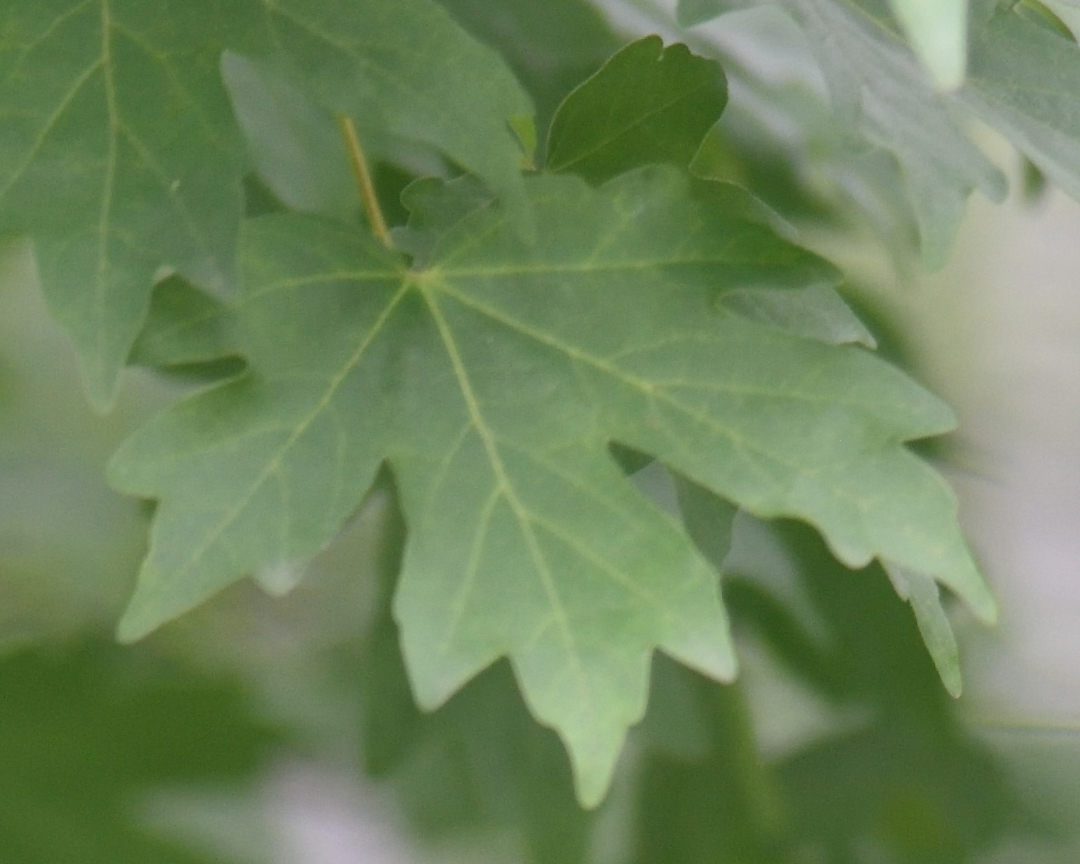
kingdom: Plantae
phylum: Tracheophyta
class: Magnoliopsida
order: Sapindales
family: Sapindaceae
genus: Acer
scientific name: Acer campestre
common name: Field maple
